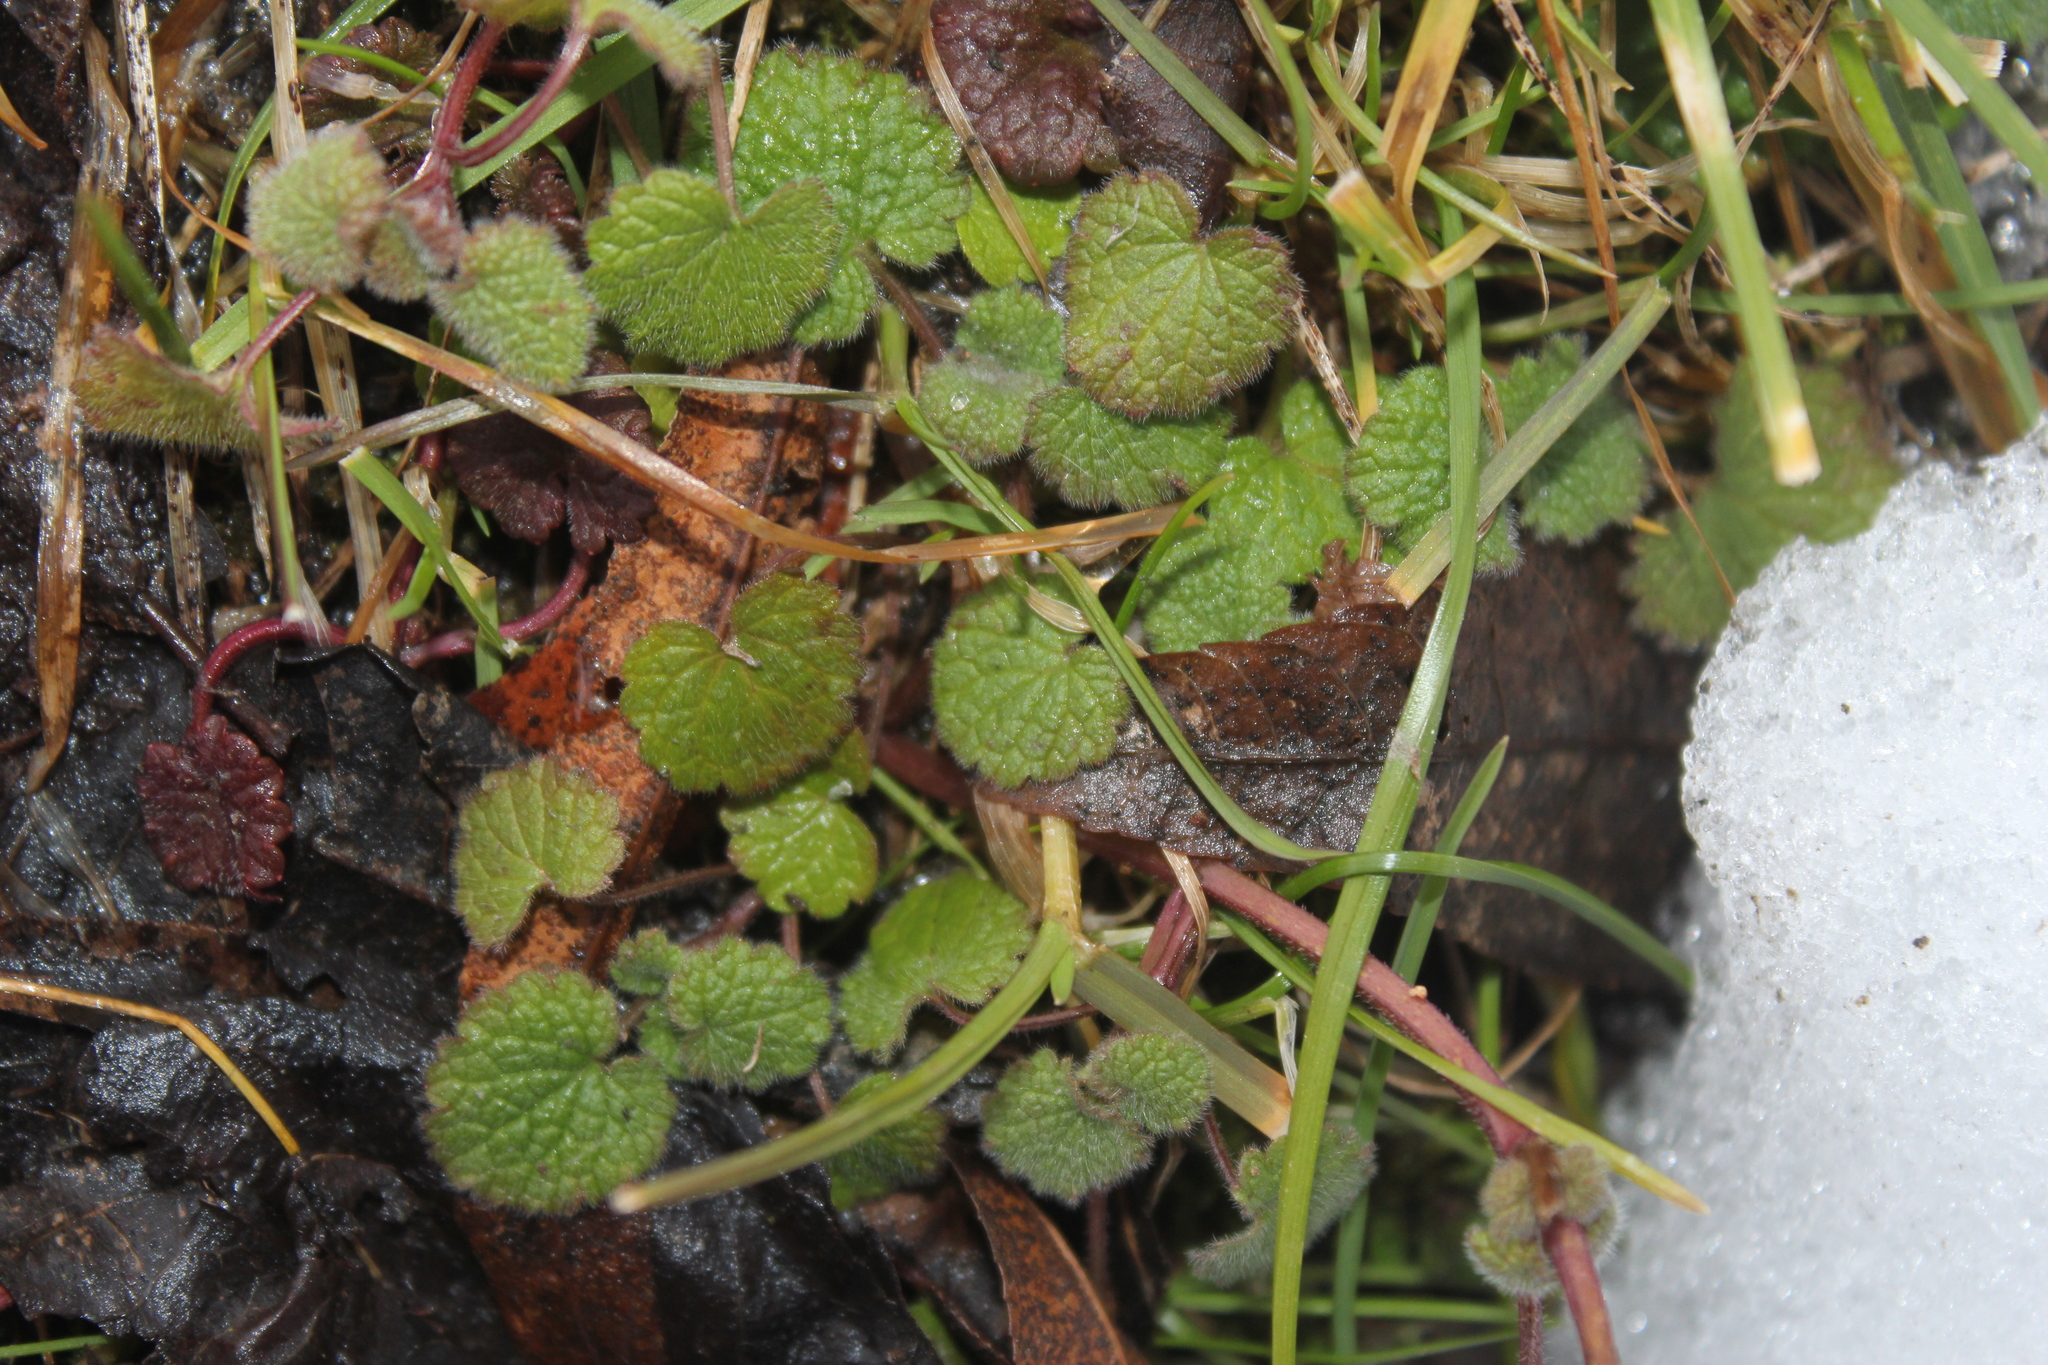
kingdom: Plantae
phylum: Tracheophyta
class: Magnoliopsida
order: Lamiales
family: Lamiaceae
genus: Lamium
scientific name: Lamium purpureum
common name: Red dead-nettle
